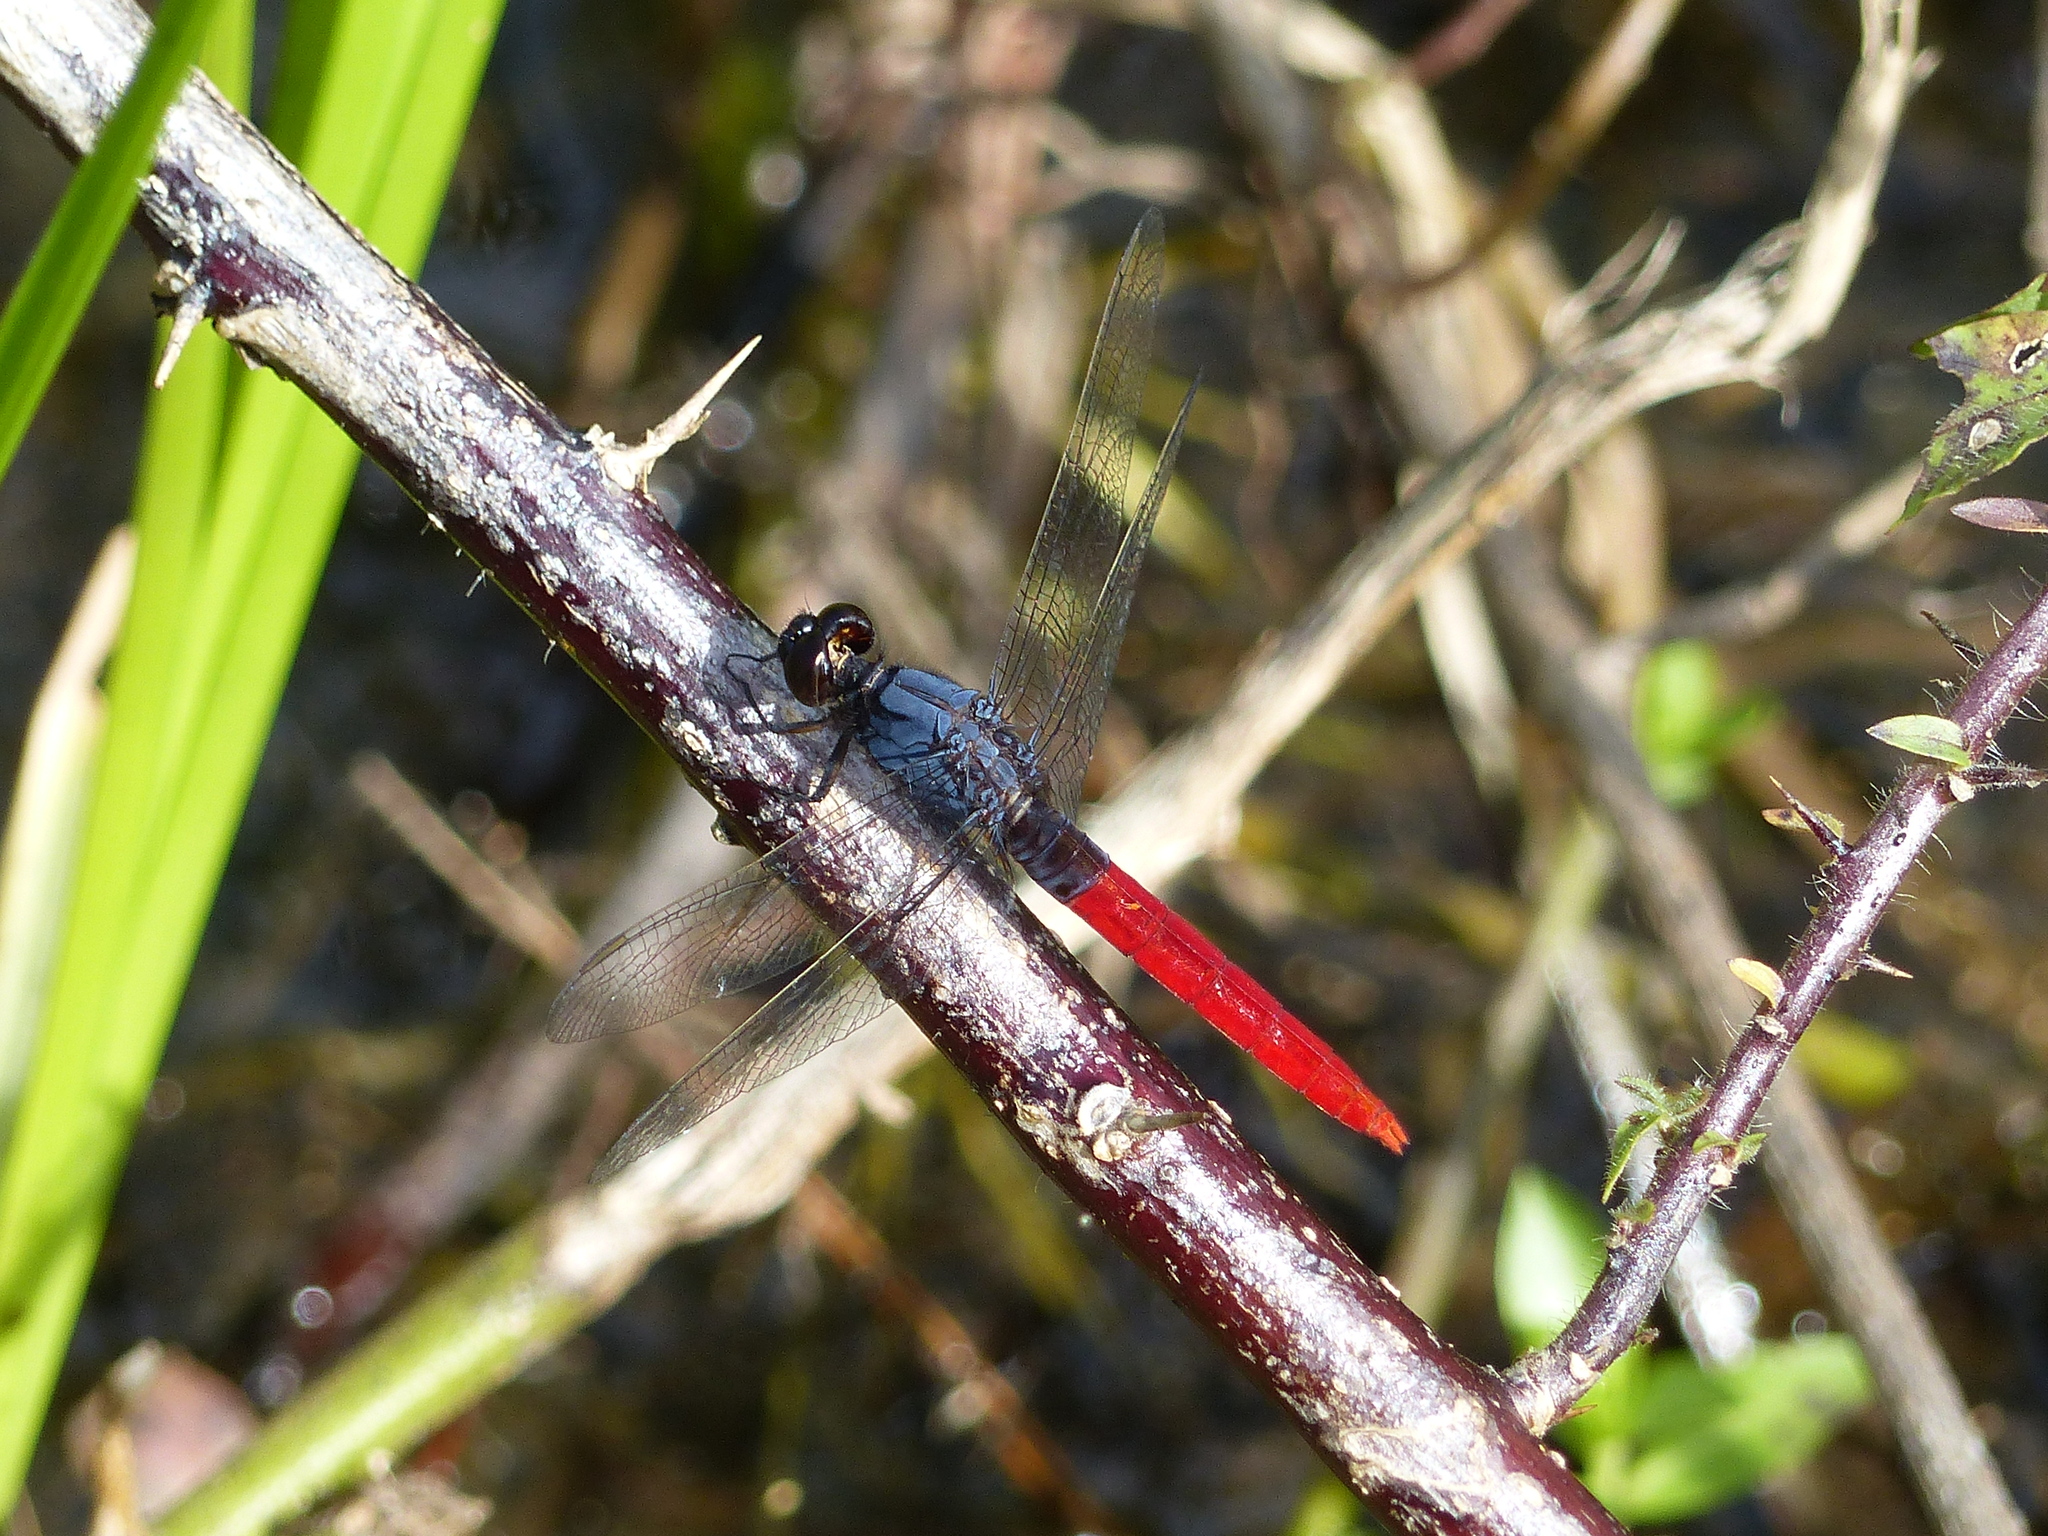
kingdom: Animalia
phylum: Arthropoda
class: Insecta
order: Odonata
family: Libellulidae
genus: Erythemis
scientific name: Erythemis peruviana
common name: Flame-tailed pondhawk
